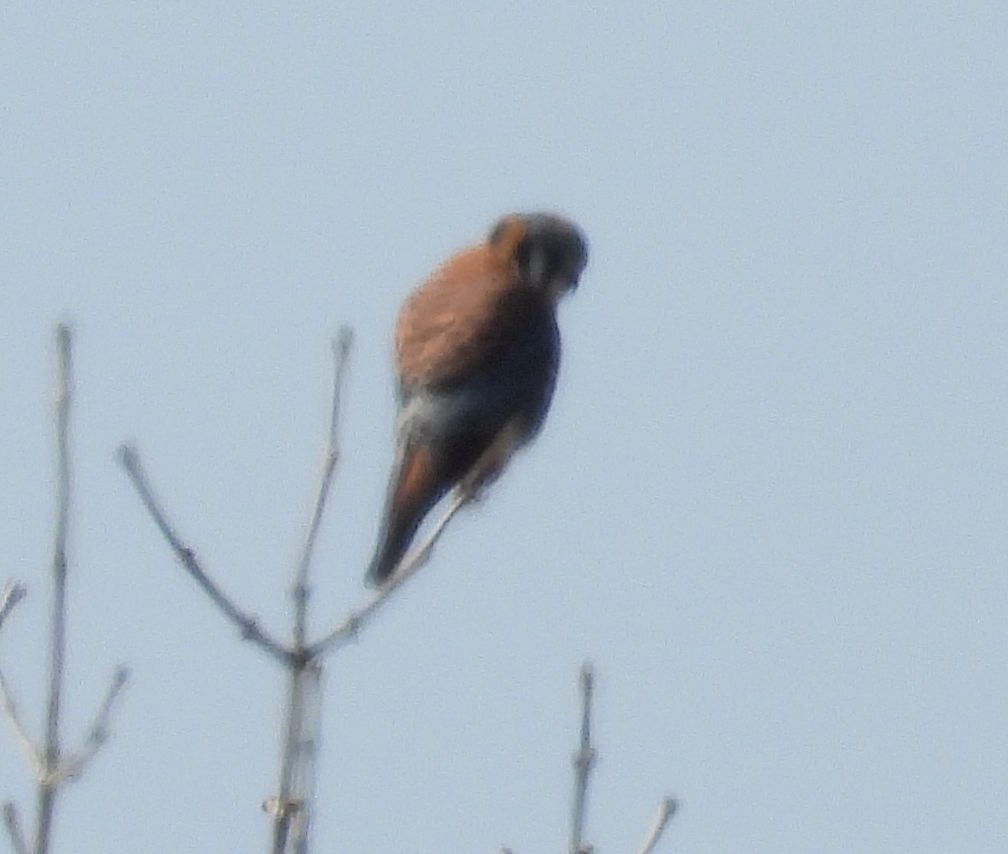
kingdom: Animalia
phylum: Chordata
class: Aves
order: Falconiformes
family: Falconidae
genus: Falco
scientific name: Falco sparverius
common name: American kestrel
